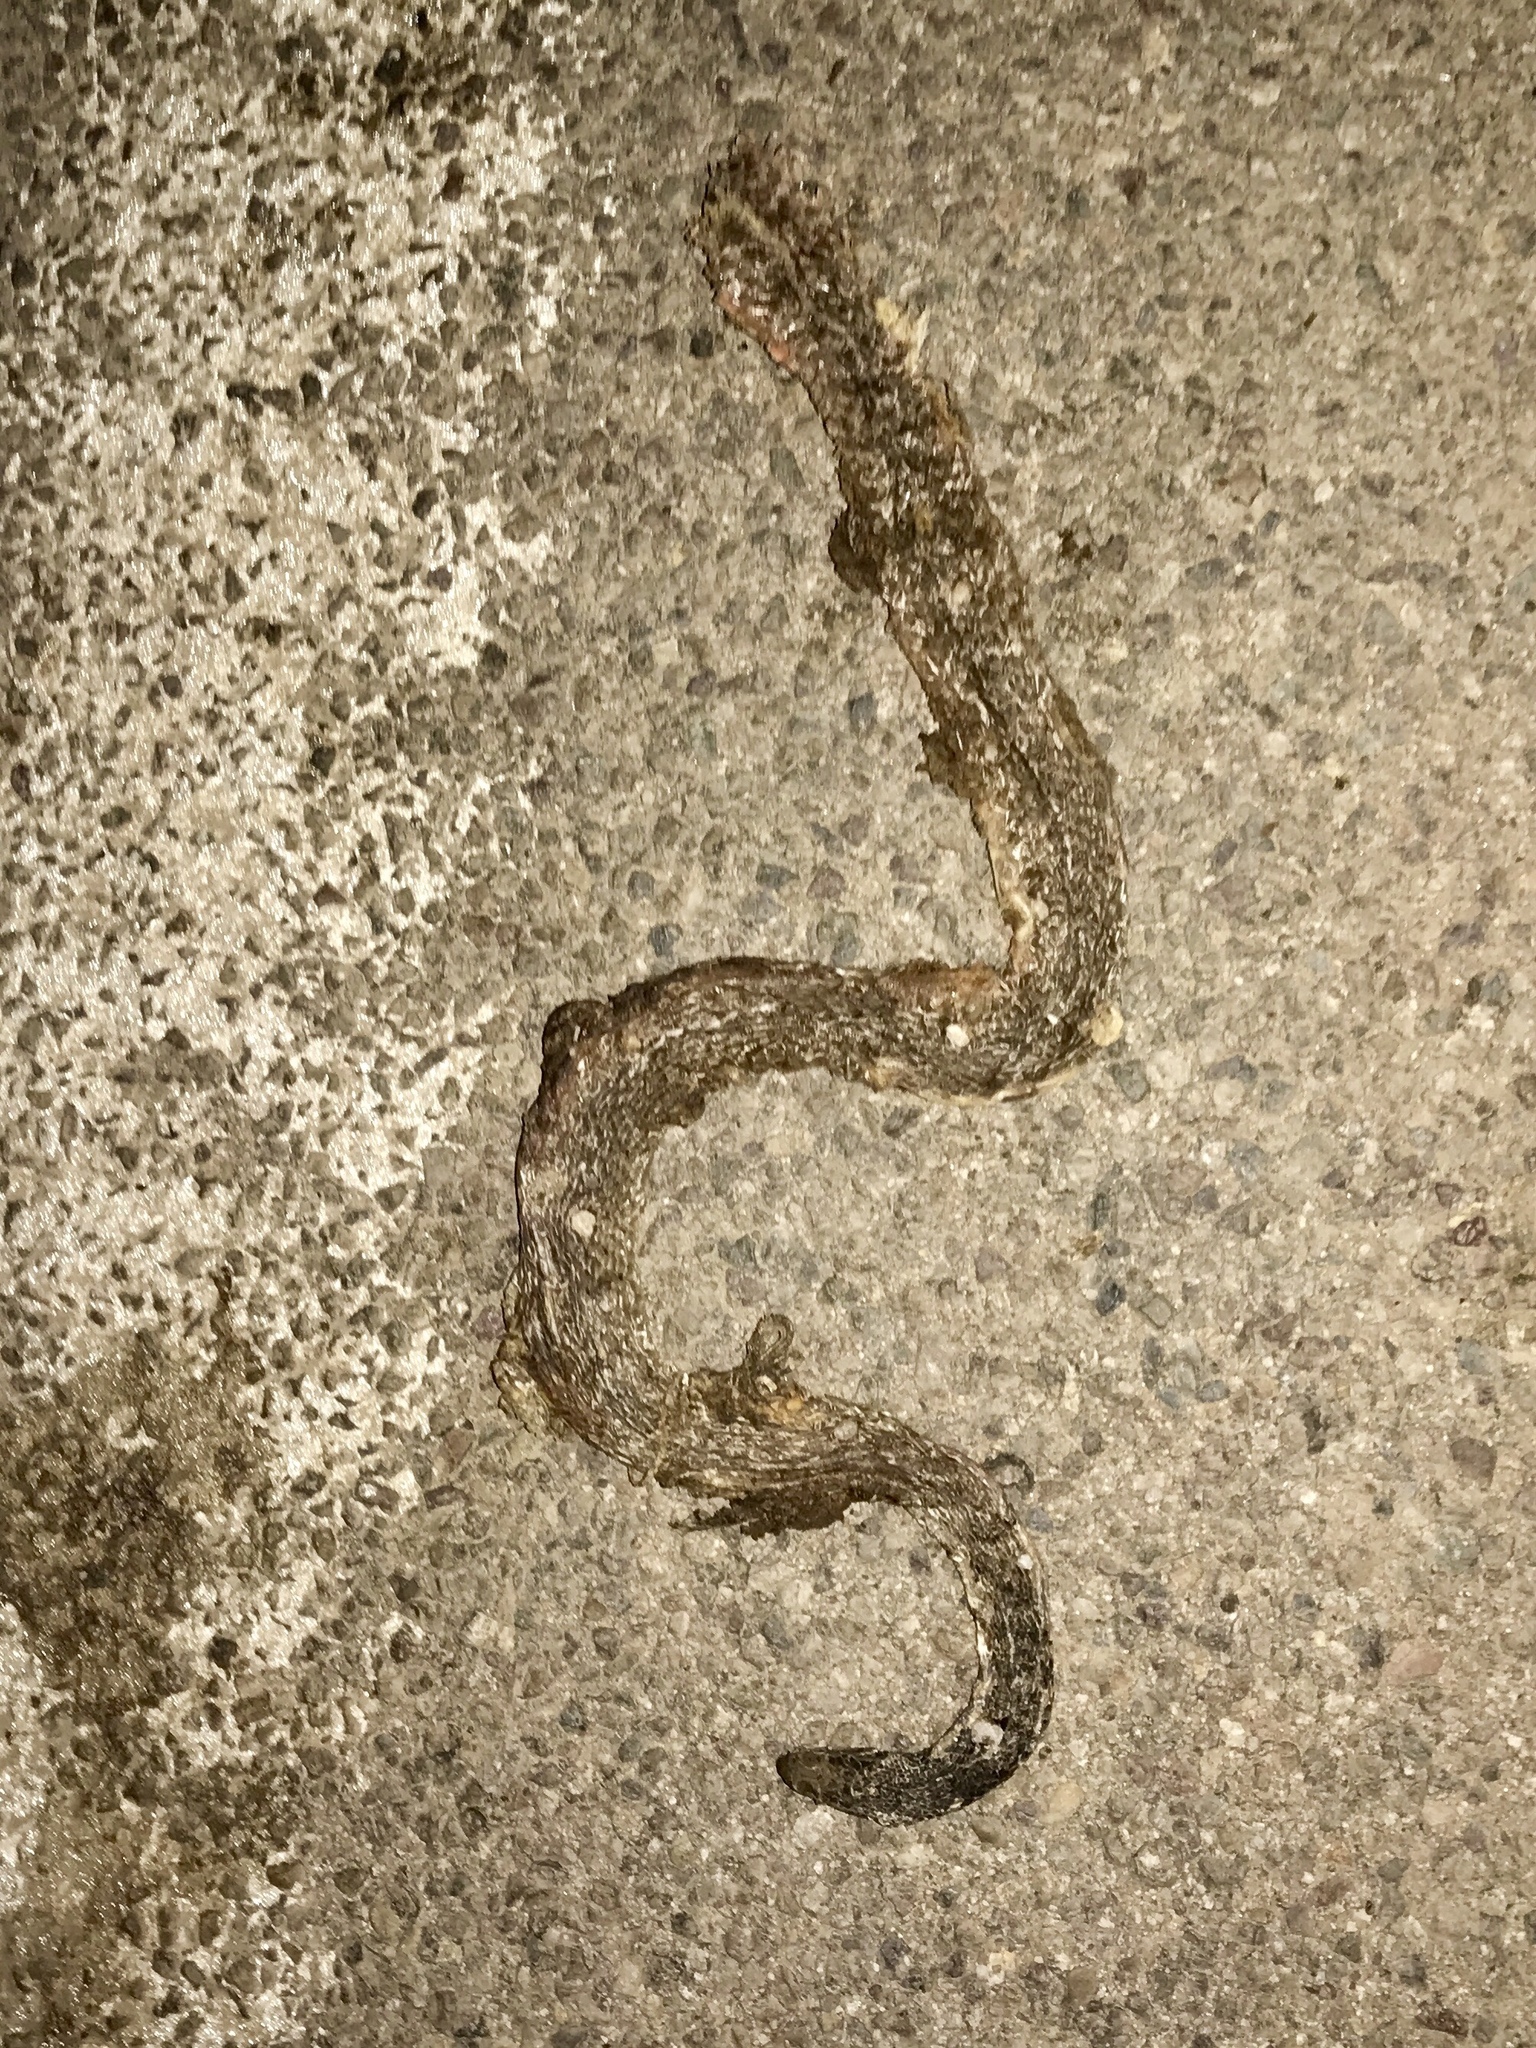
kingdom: Animalia
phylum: Chordata
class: Squamata
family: Colubridae
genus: Masticophis
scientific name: Masticophis flagellum
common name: Coachwhip
